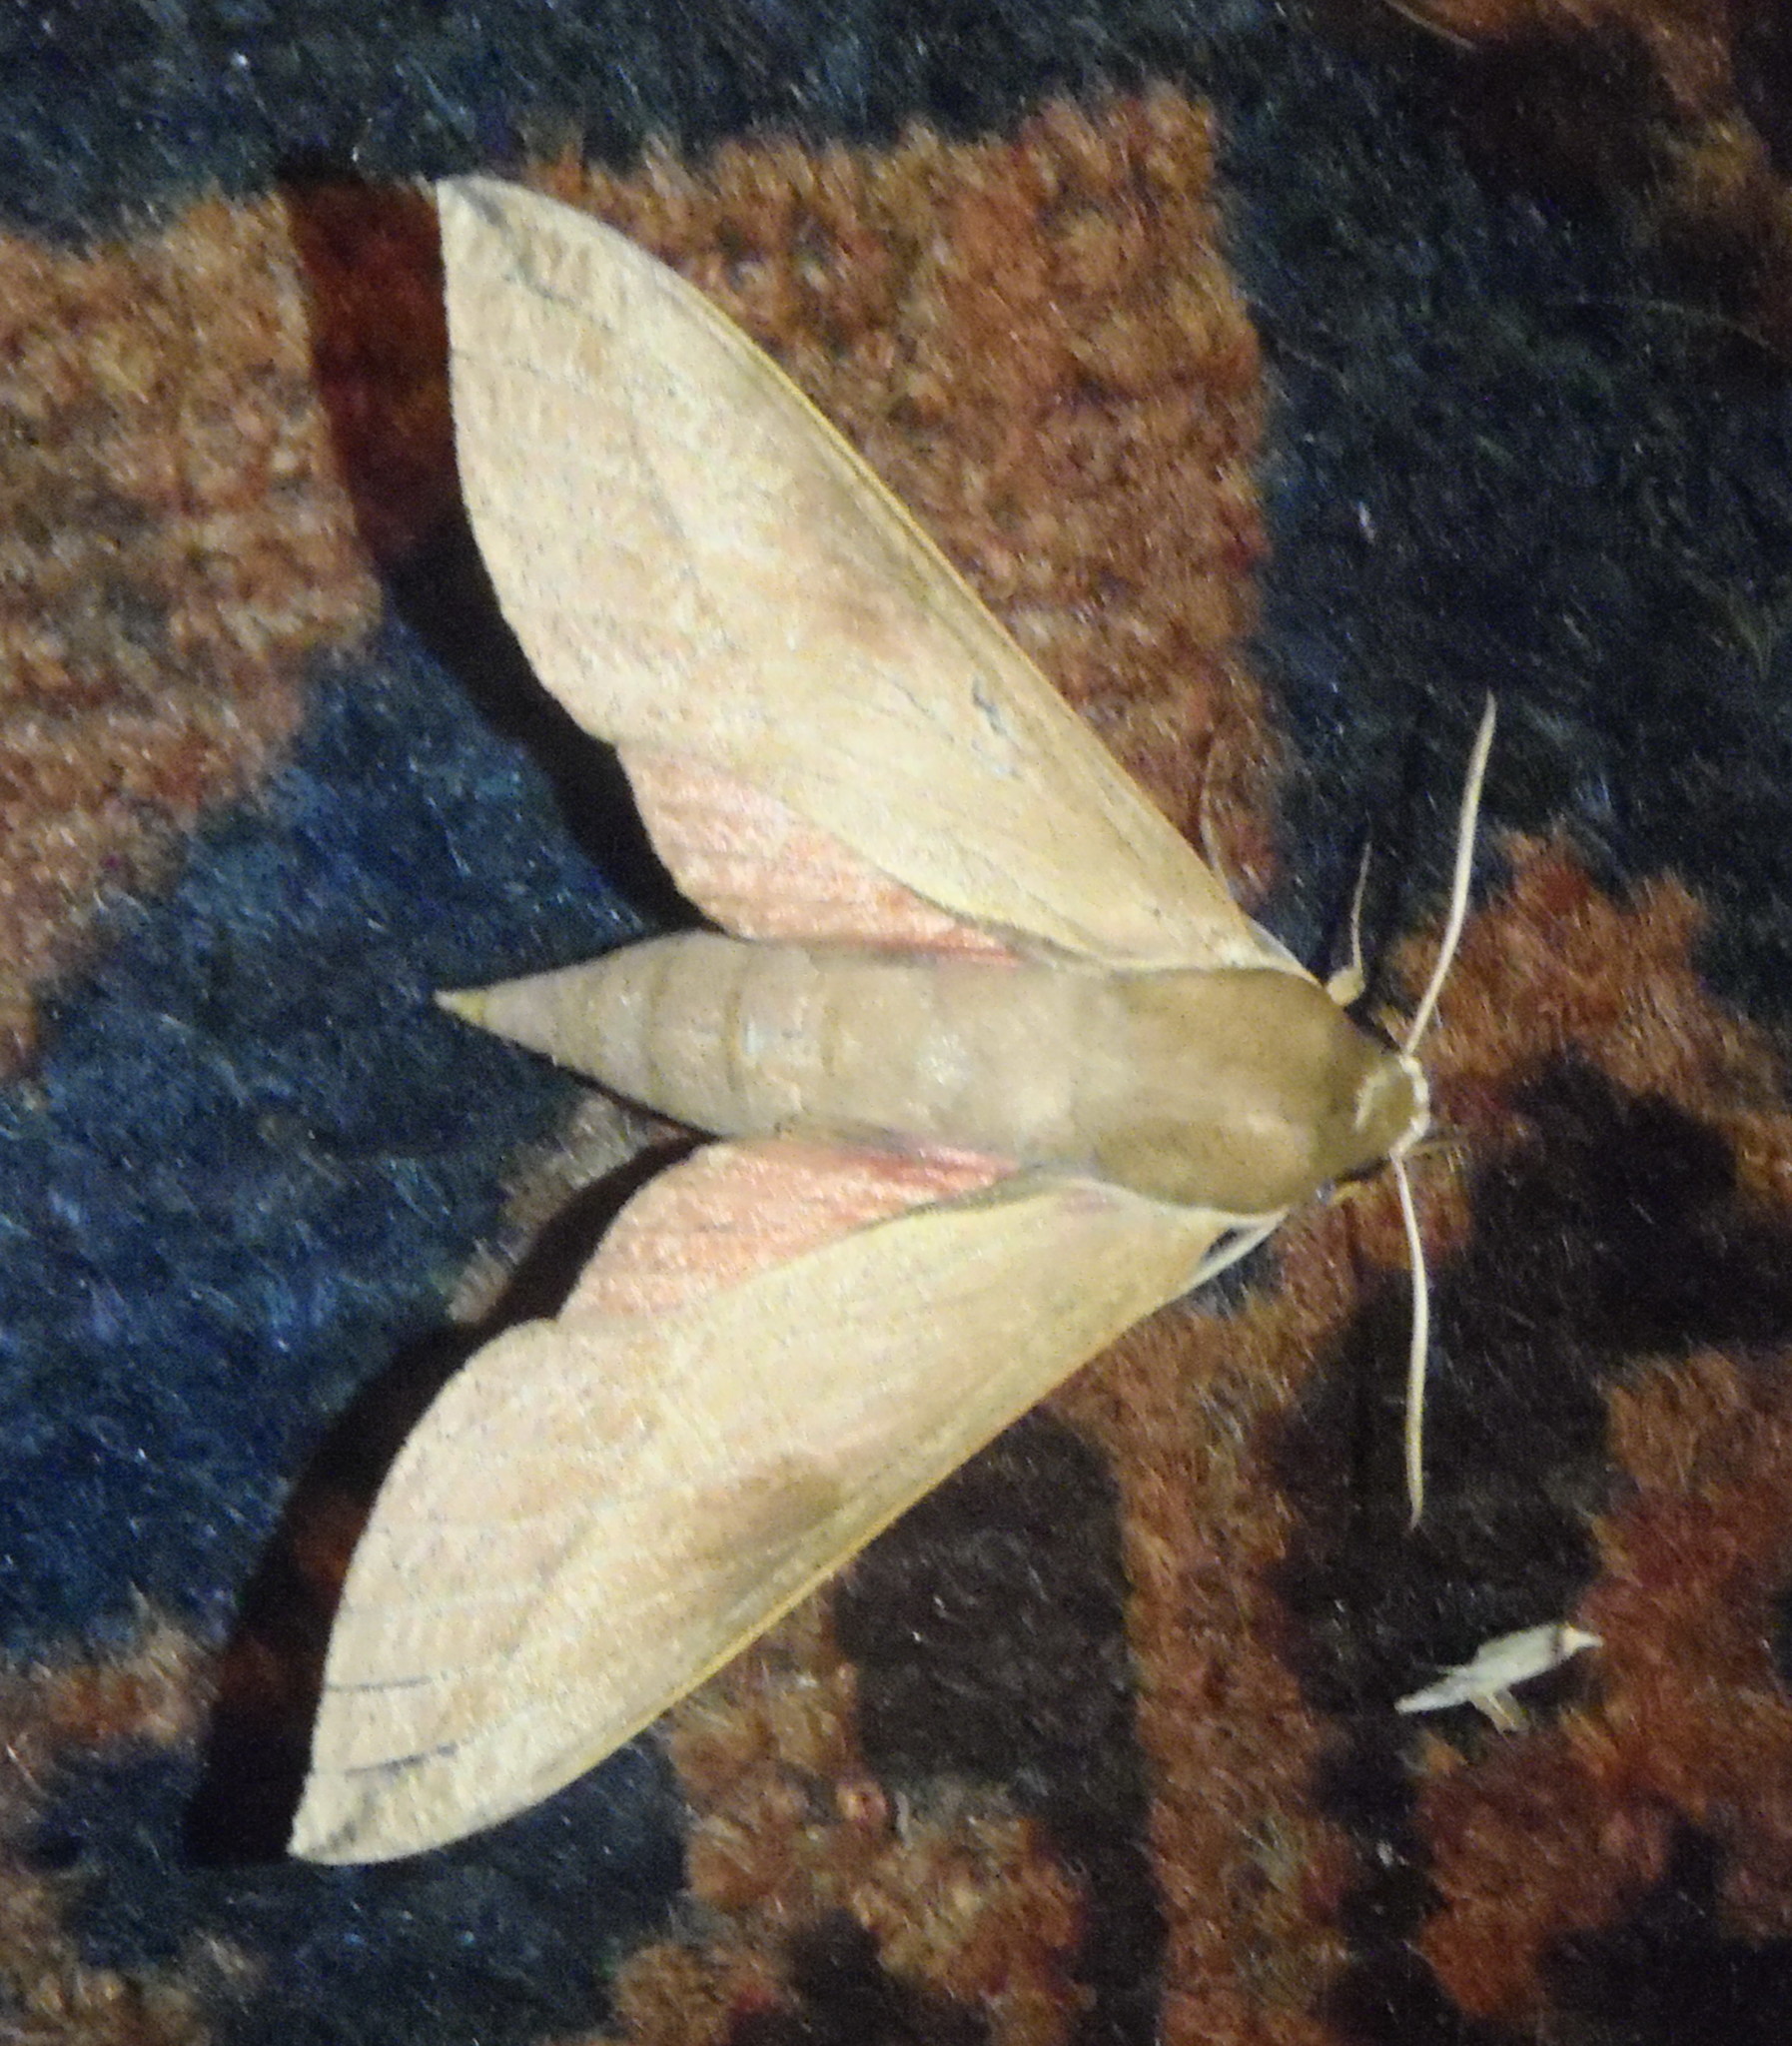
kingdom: Animalia
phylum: Arthropoda
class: Insecta
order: Lepidoptera
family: Sphingidae
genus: Theretra
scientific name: Theretra capensis
